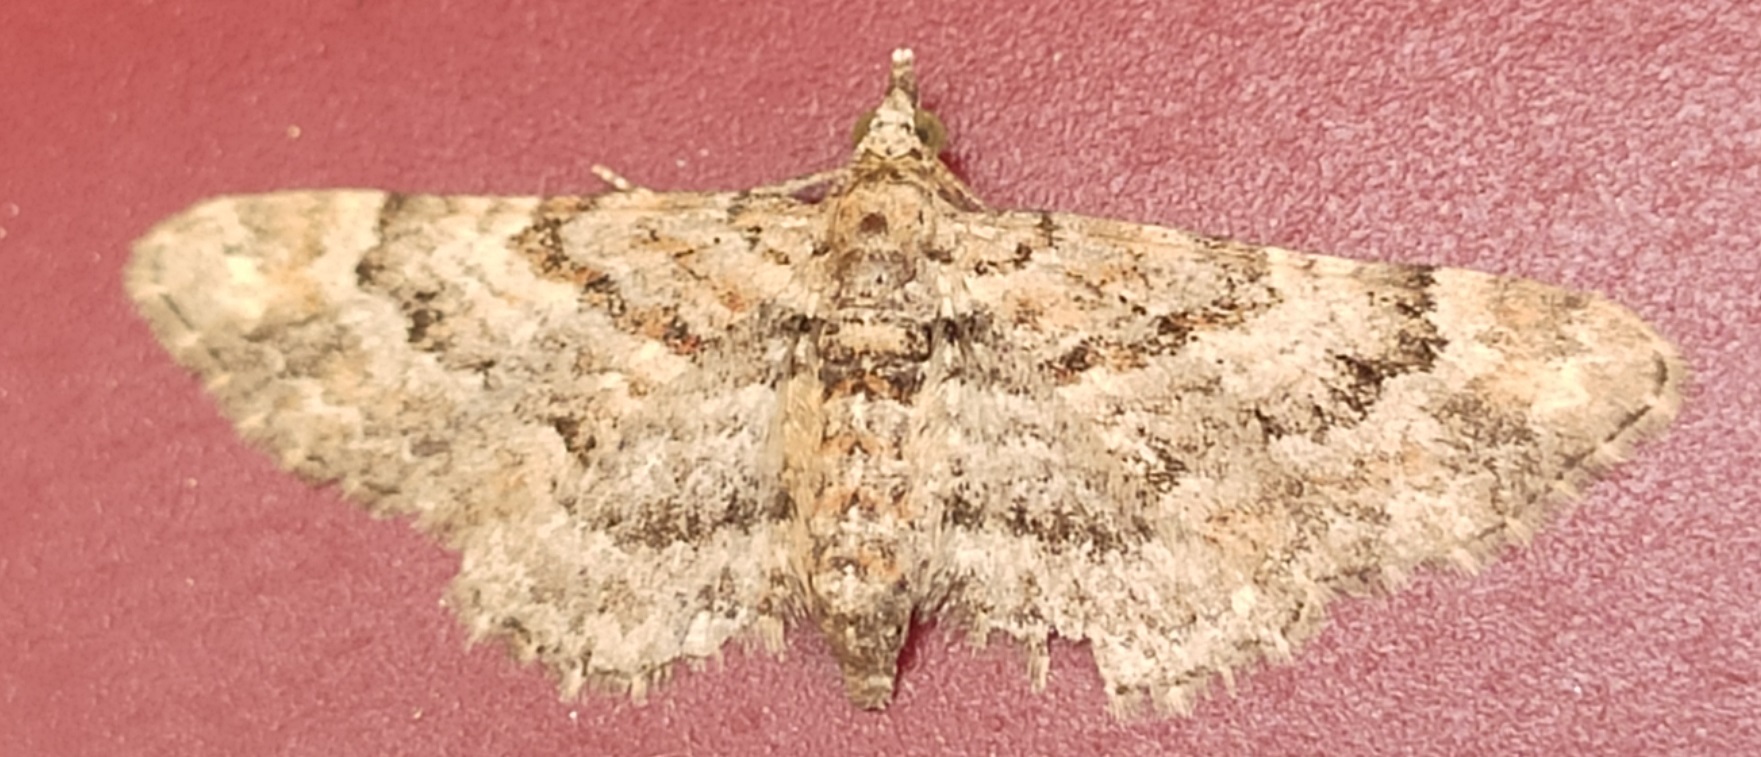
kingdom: Animalia
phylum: Arthropoda
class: Insecta
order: Lepidoptera
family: Geometridae
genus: Gymnoscelis
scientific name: Gymnoscelis rufifasciata
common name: Double-striped pug
